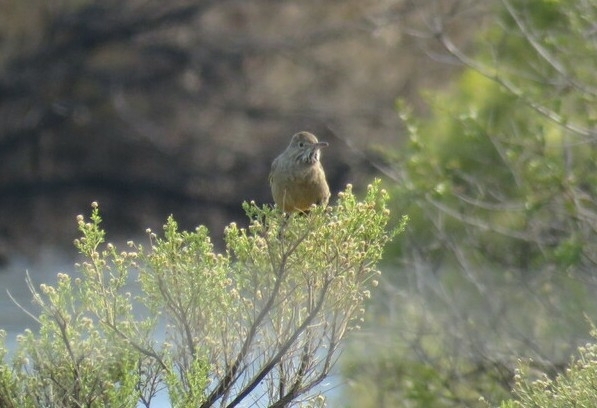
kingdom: Animalia
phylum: Chordata
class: Aves
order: Passeriformes
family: Tyrannidae
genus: Agriornis
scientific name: Agriornis lividus
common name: Great shrike-tyrant
